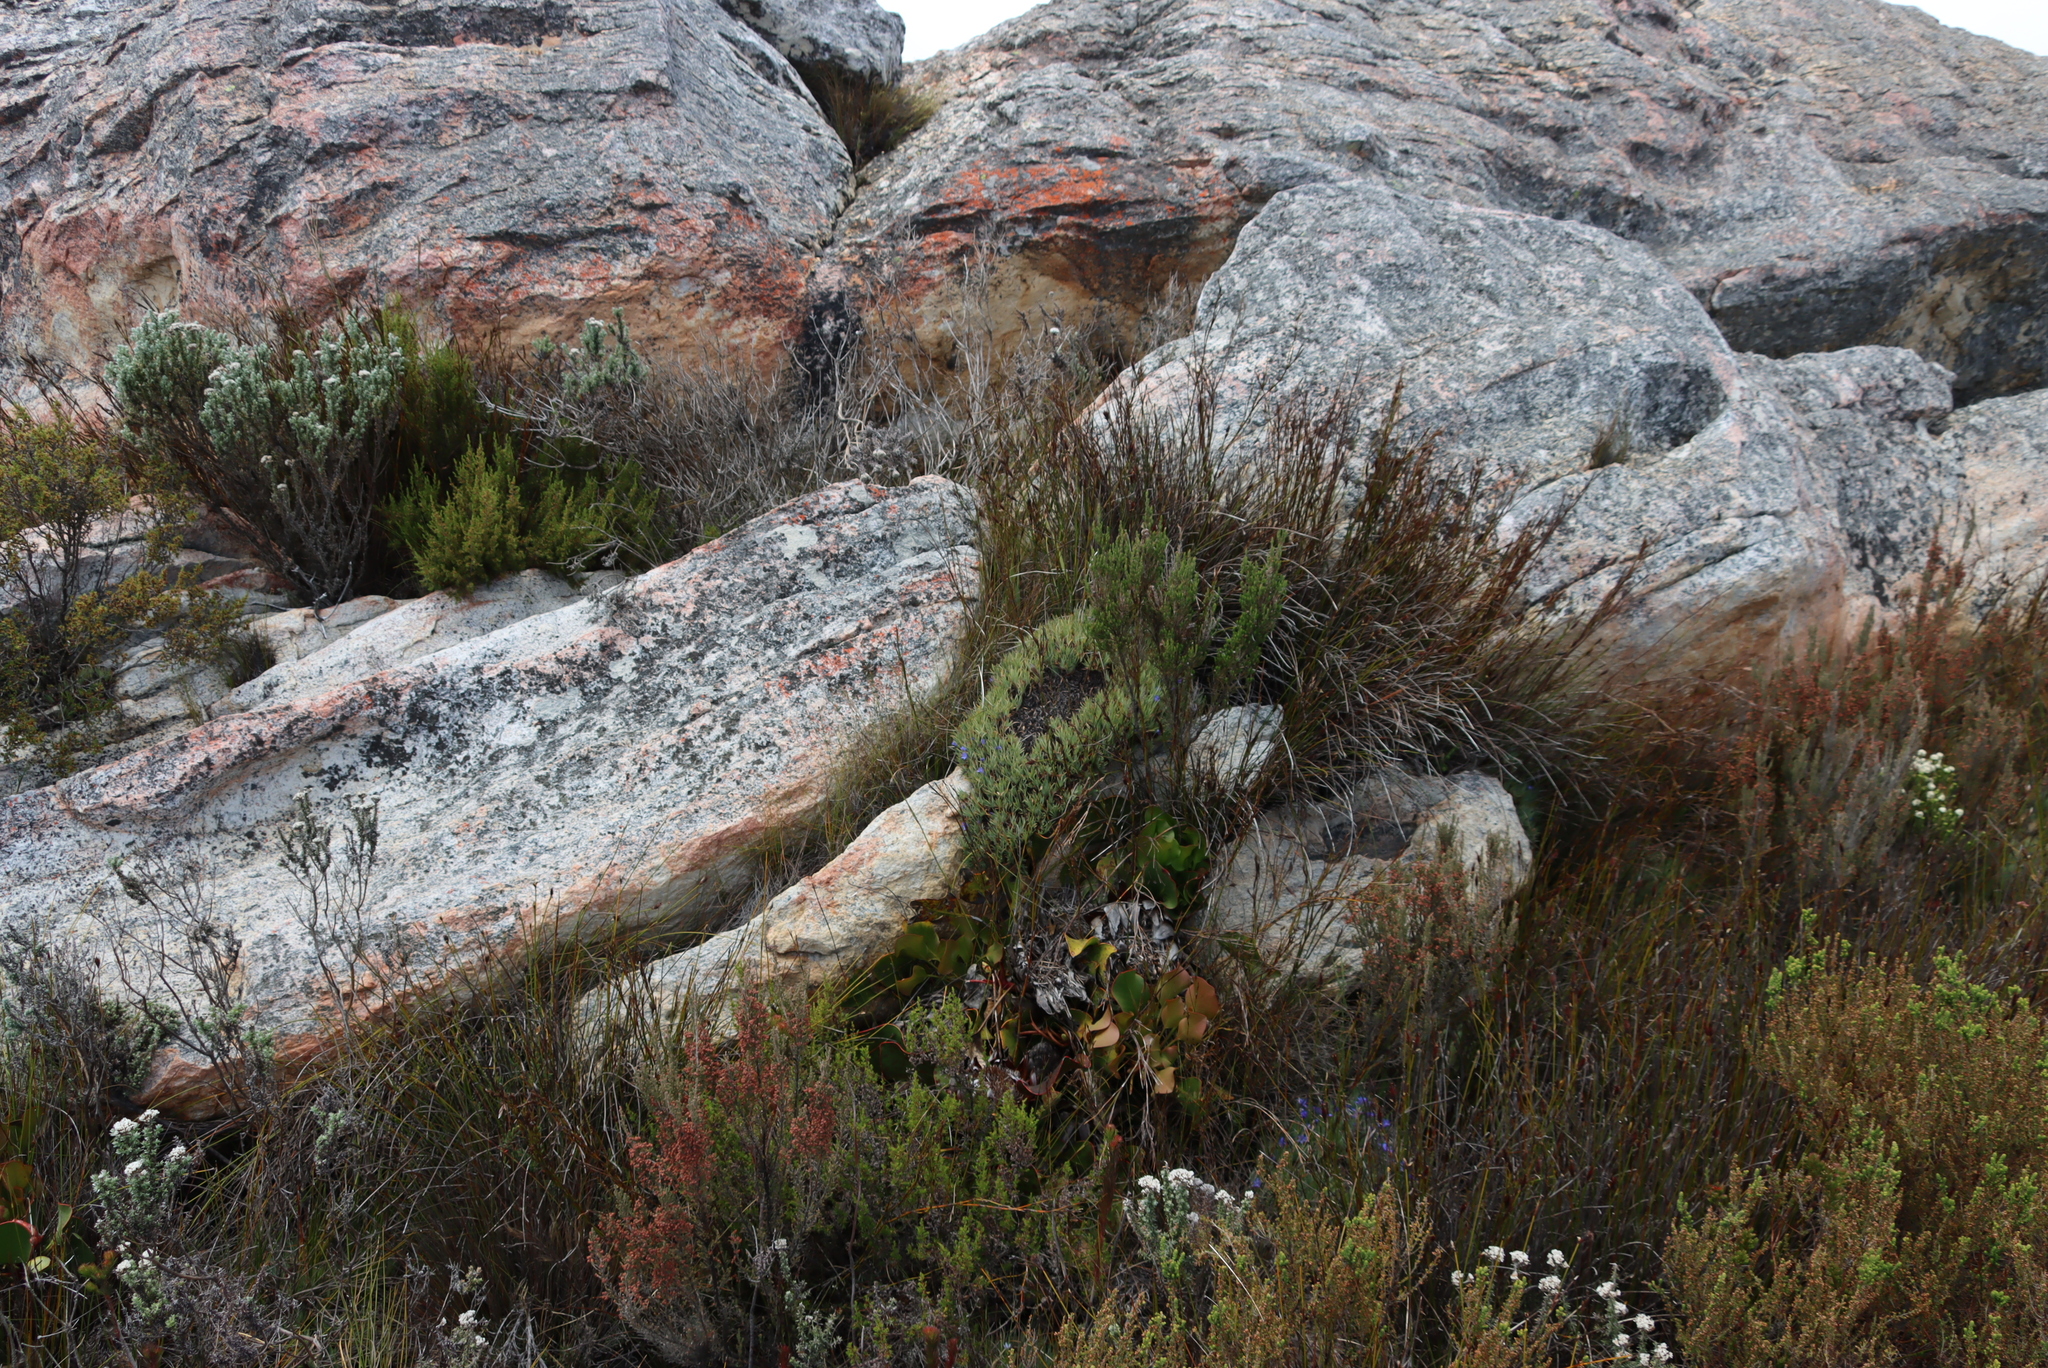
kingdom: Plantae
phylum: Tracheophyta
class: Magnoliopsida
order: Proteales
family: Proteaceae
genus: Protea
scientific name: Protea cynaroides
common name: King protea
